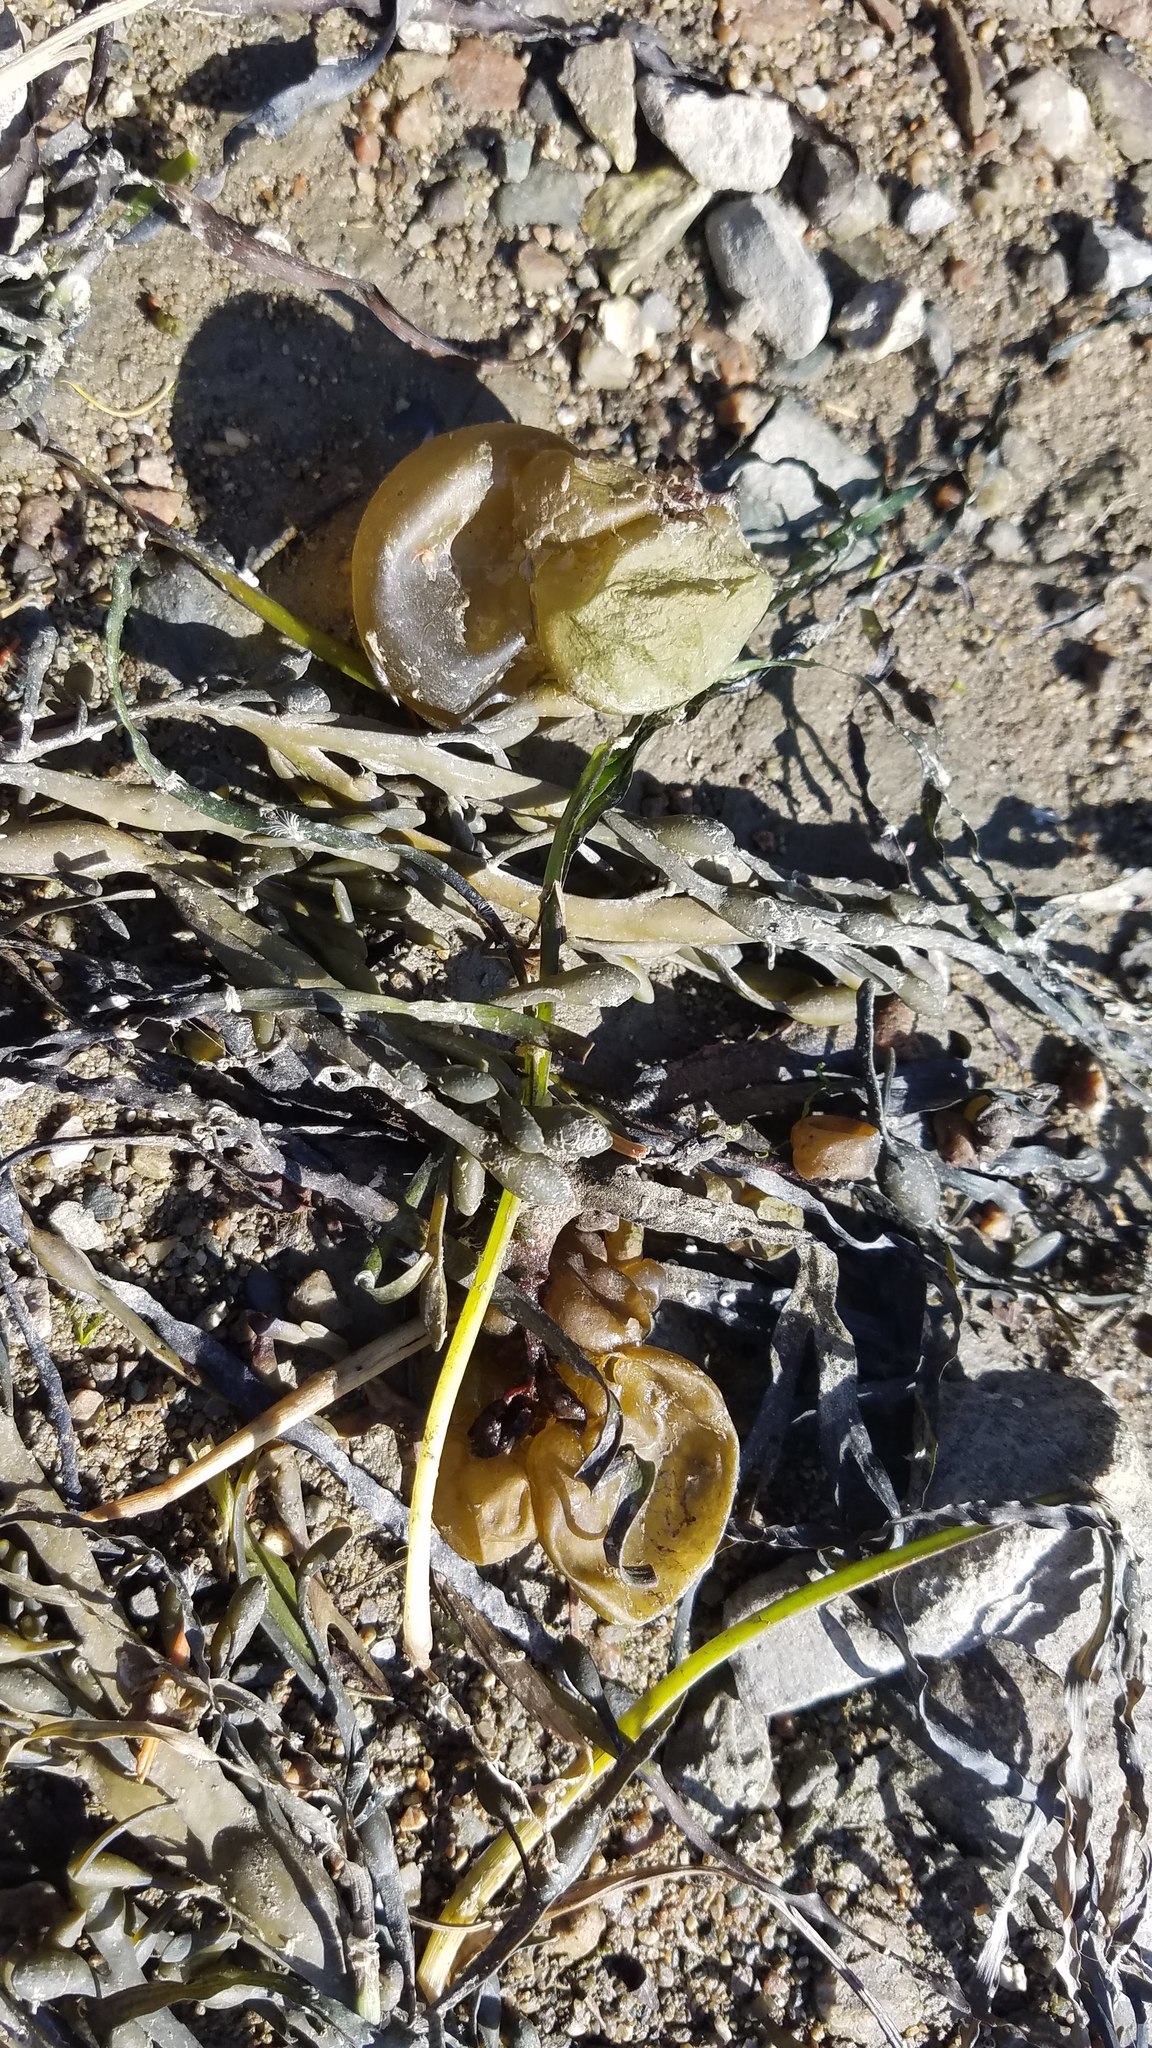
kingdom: Chromista
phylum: Ochrophyta
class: Phaeophyceae
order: Scytosiphonales
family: Scytosiphonaceae
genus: Colpomenia
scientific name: Colpomenia peregrina
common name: Oyster thief
